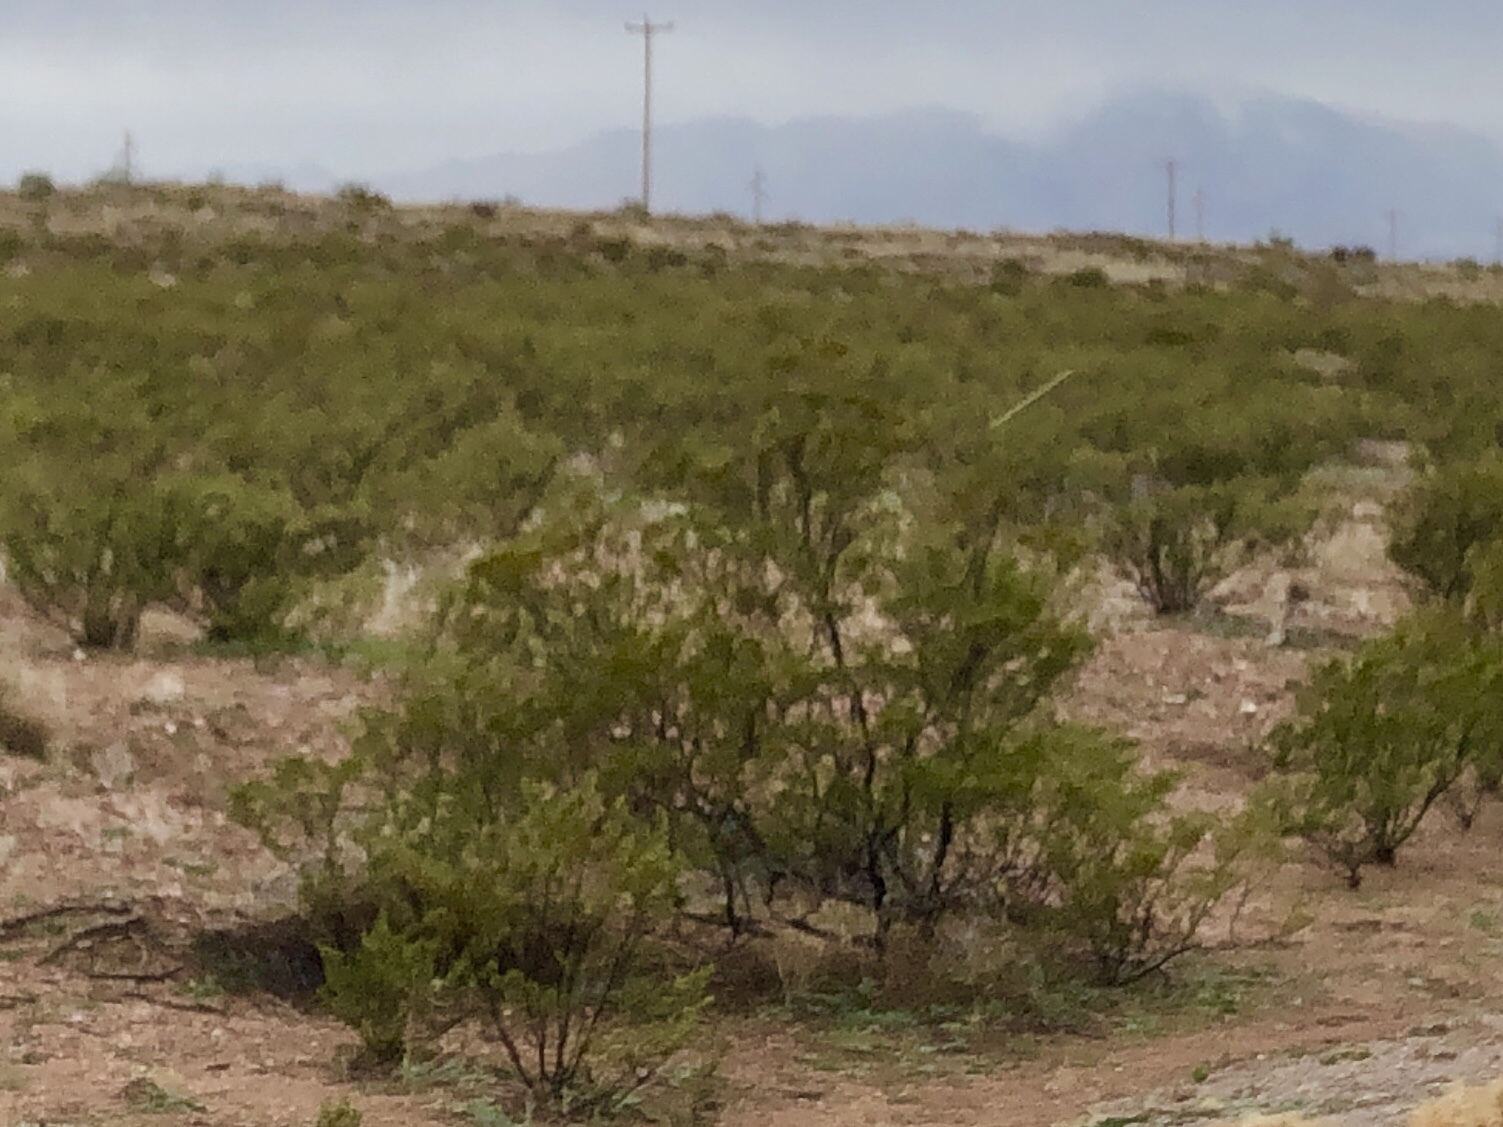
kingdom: Plantae
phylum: Tracheophyta
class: Magnoliopsida
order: Zygophyllales
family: Zygophyllaceae
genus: Larrea
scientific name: Larrea tridentata
